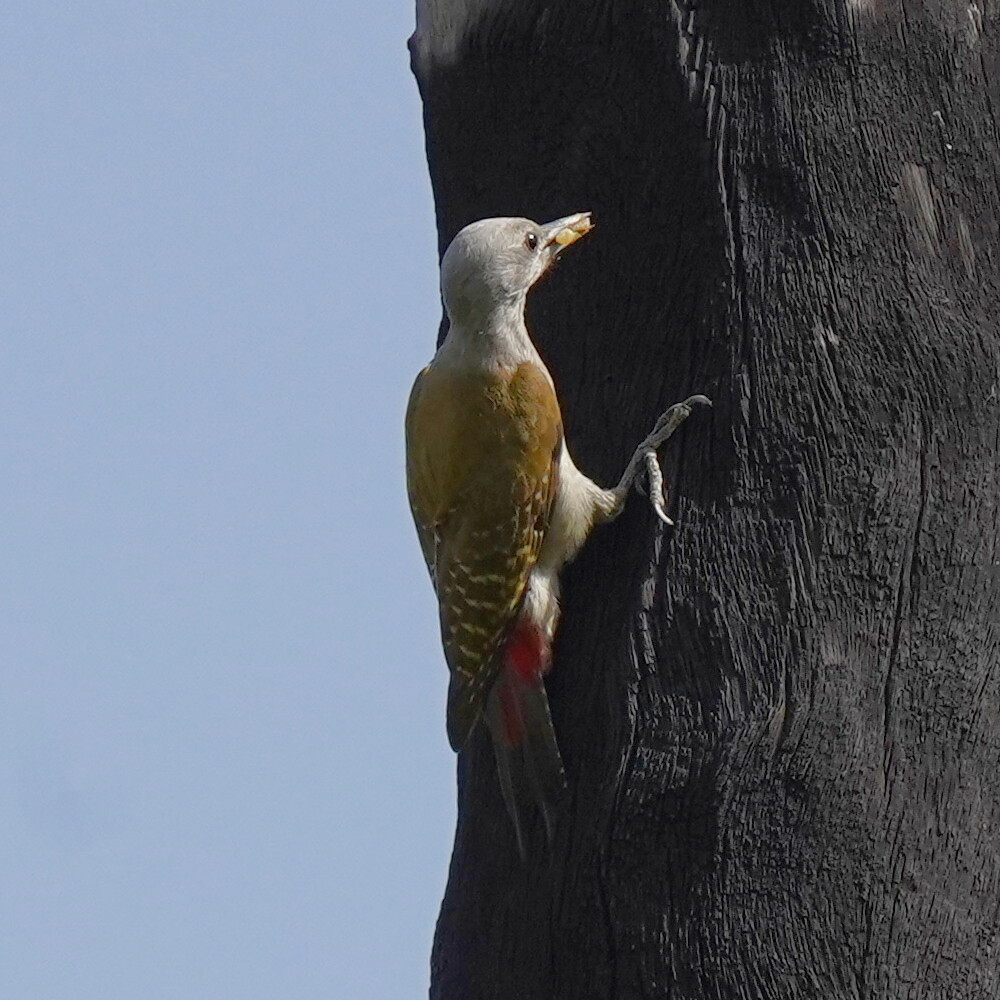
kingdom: Animalia
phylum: Chordata
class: Aves
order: Piciformes
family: Picidae
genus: Dendropicos
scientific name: Dendropicos goertae
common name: African grey woodpecker
